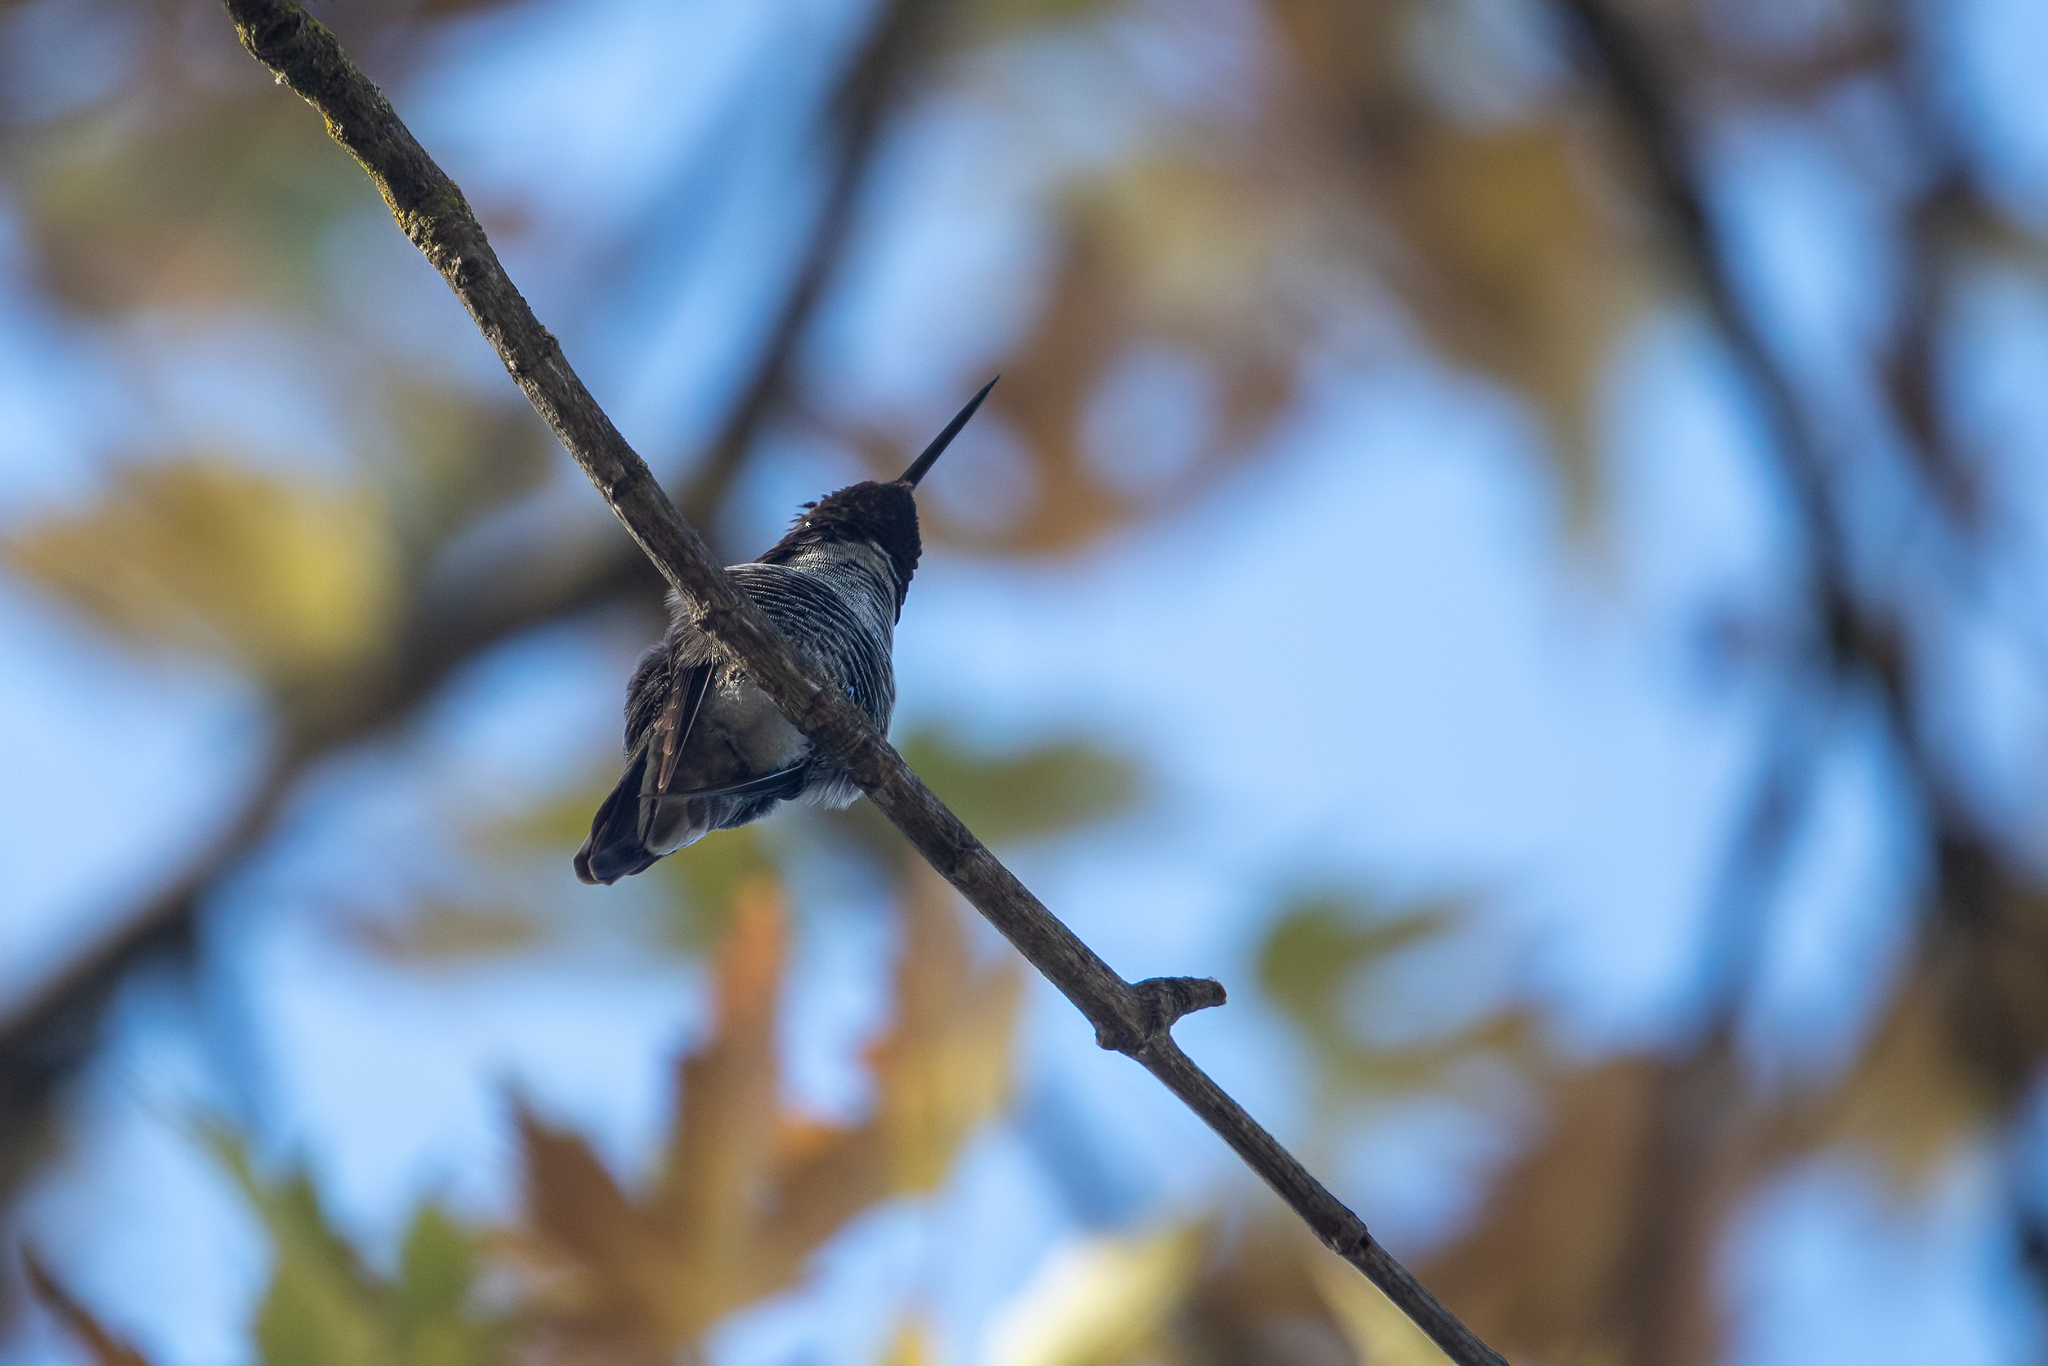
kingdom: Animalia
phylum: Chordata
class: Aves
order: Apodiformes
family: Trochilidae
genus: Calypte
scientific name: Calypte anna
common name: Anna's hummingbird
